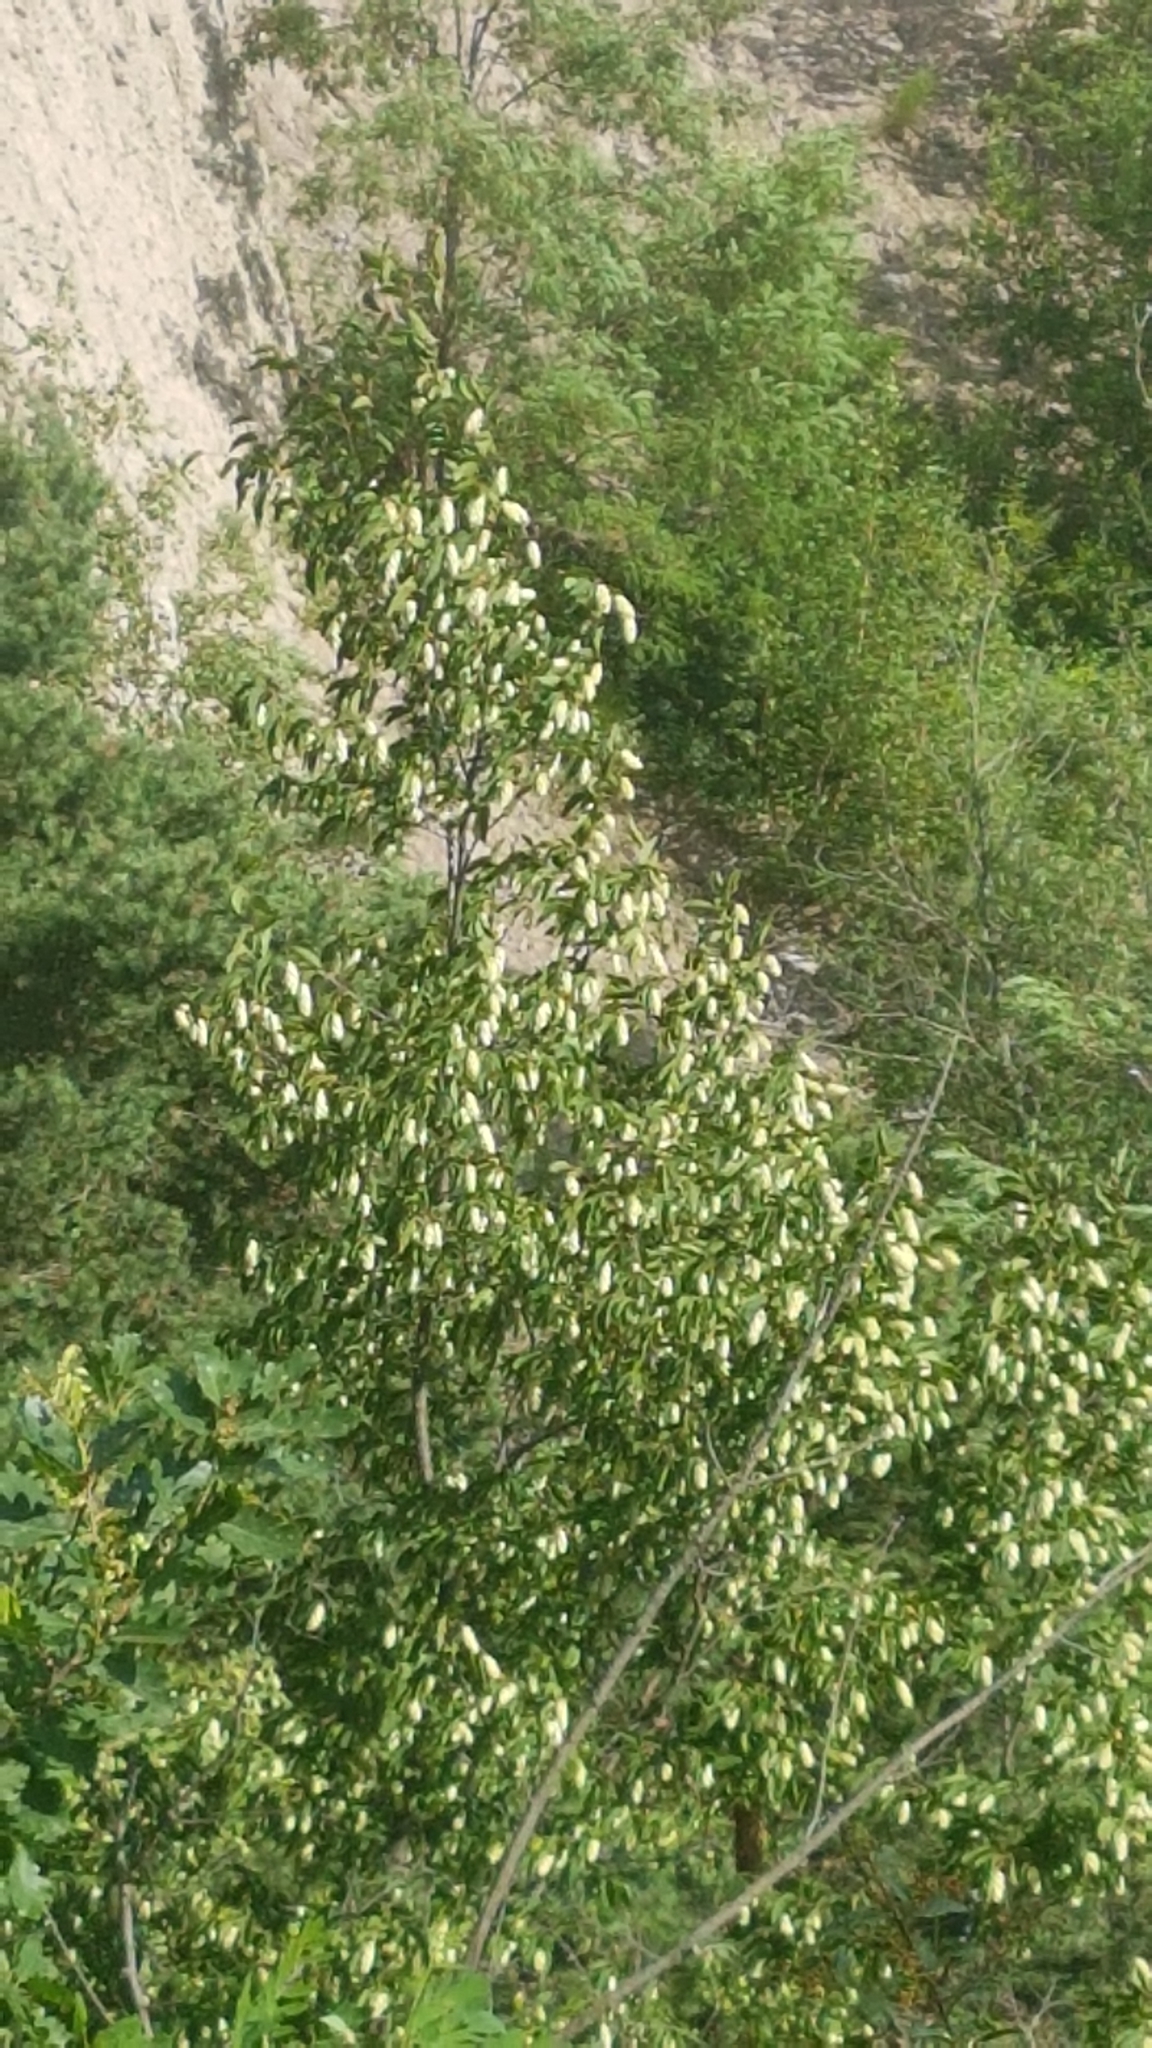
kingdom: Plantae
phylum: Tracheophyta
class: Magnoliopsida
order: Fagales
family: Betulaceae
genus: Ostrya
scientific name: Ostrya carpinifolia
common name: European hop-hornbeam
